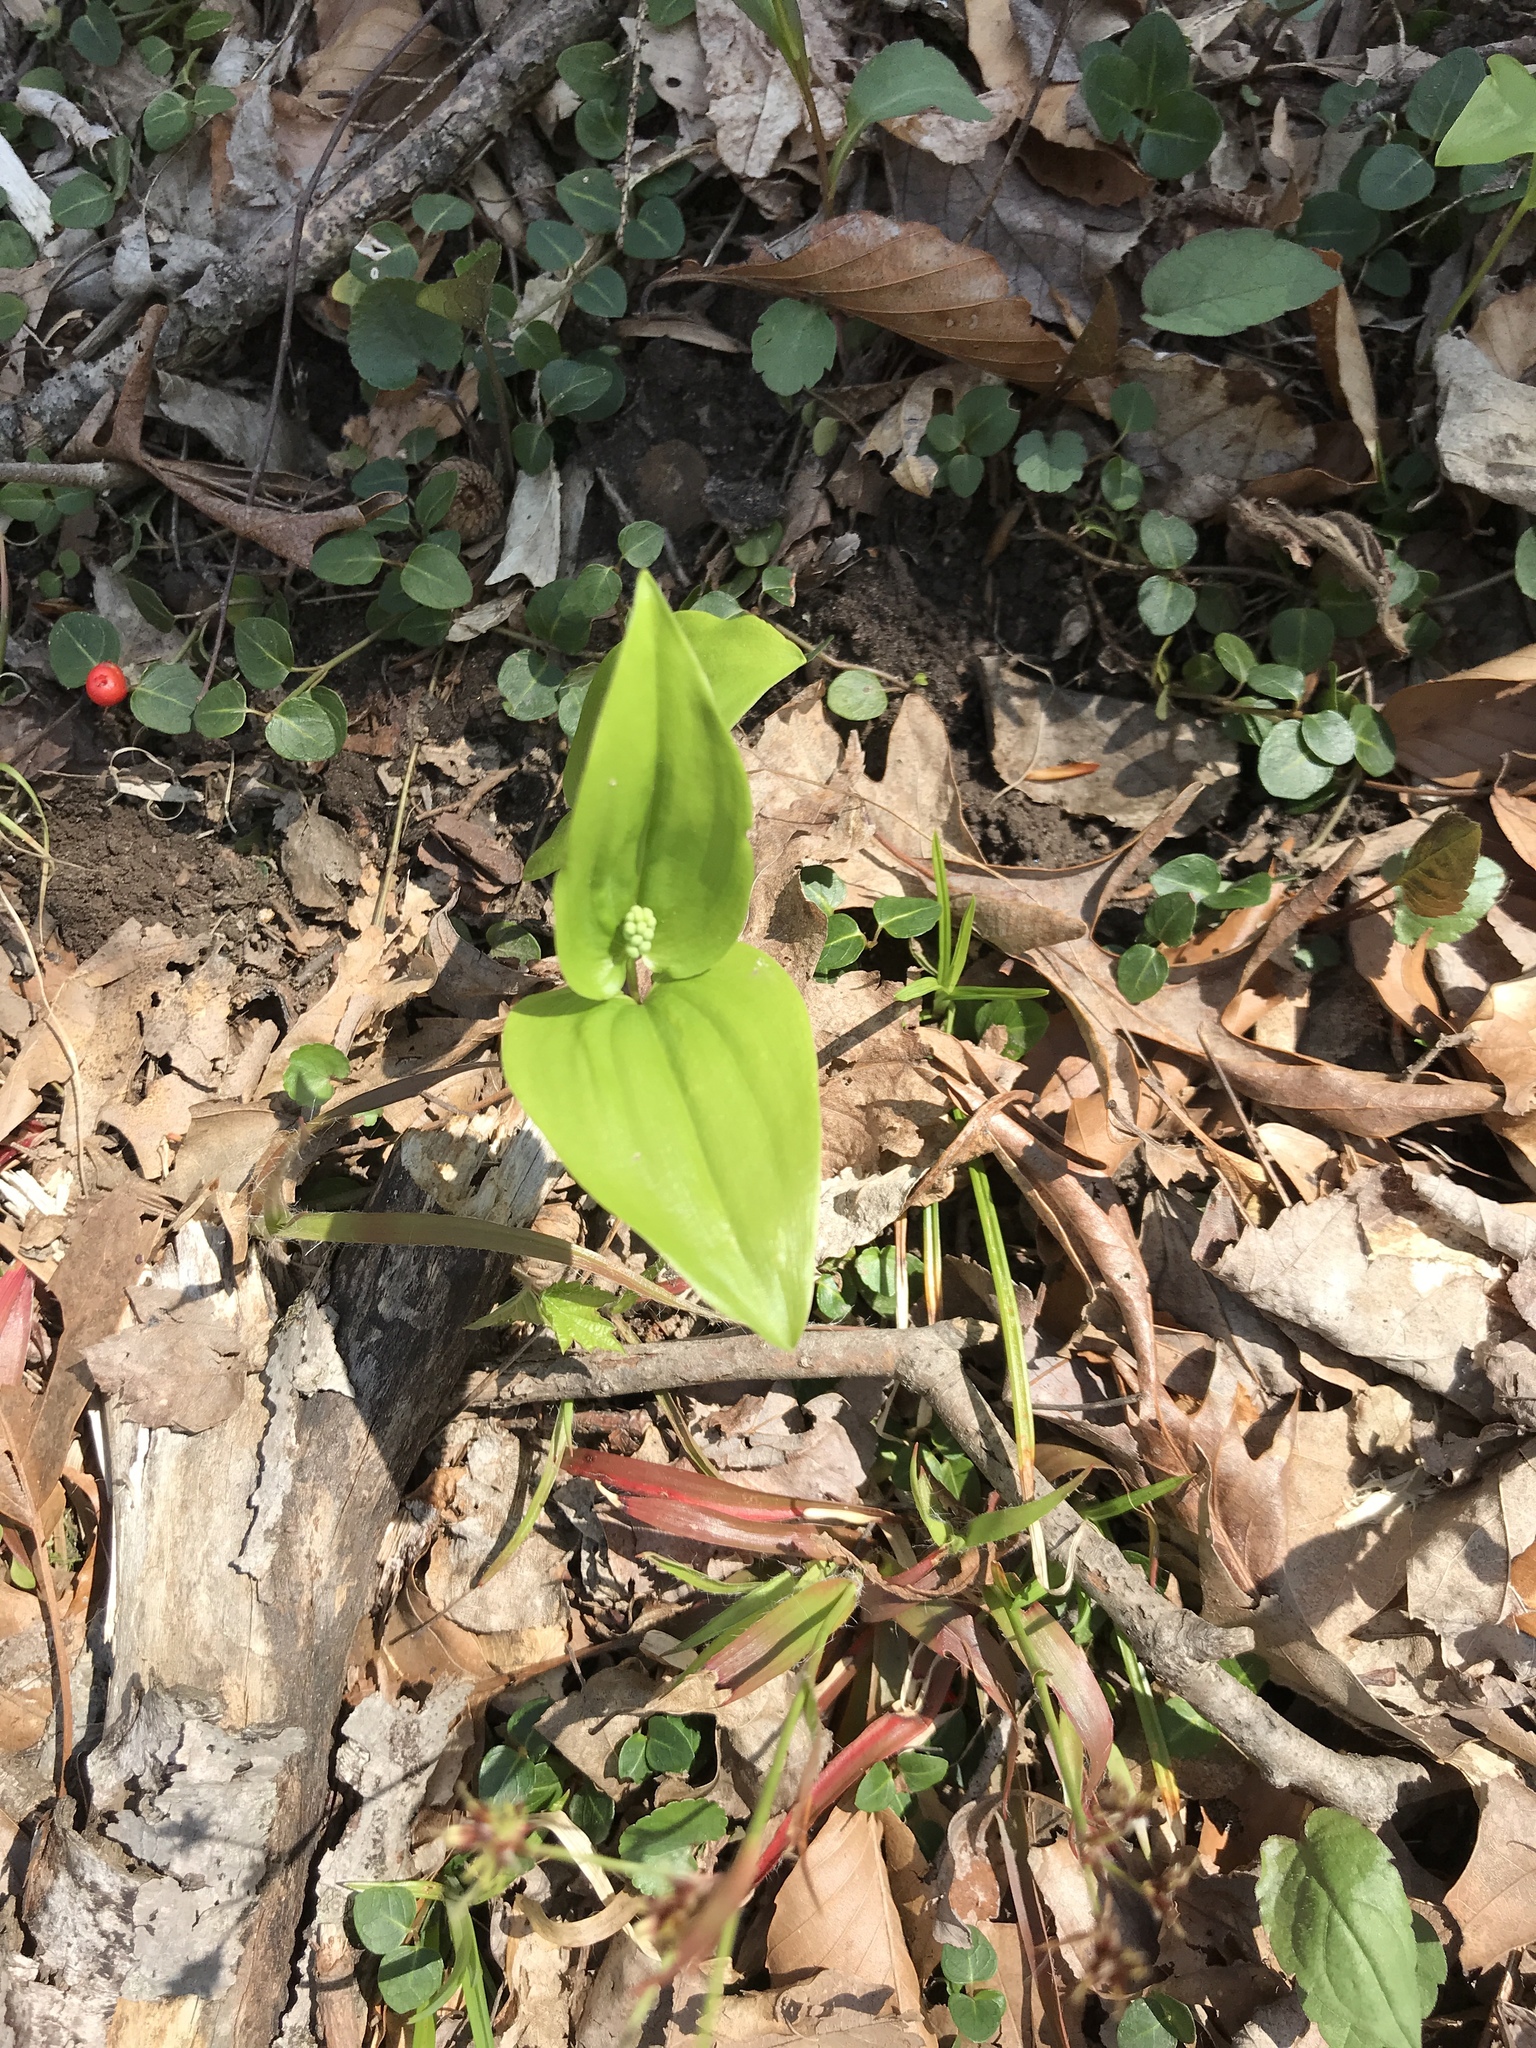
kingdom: Plantae
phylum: Tracheophyta
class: Liliopsida
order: Asparagales
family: Asparagaceae
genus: Maianthemum
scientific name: Maianthemum canadense
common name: False lily-of-the-valley
